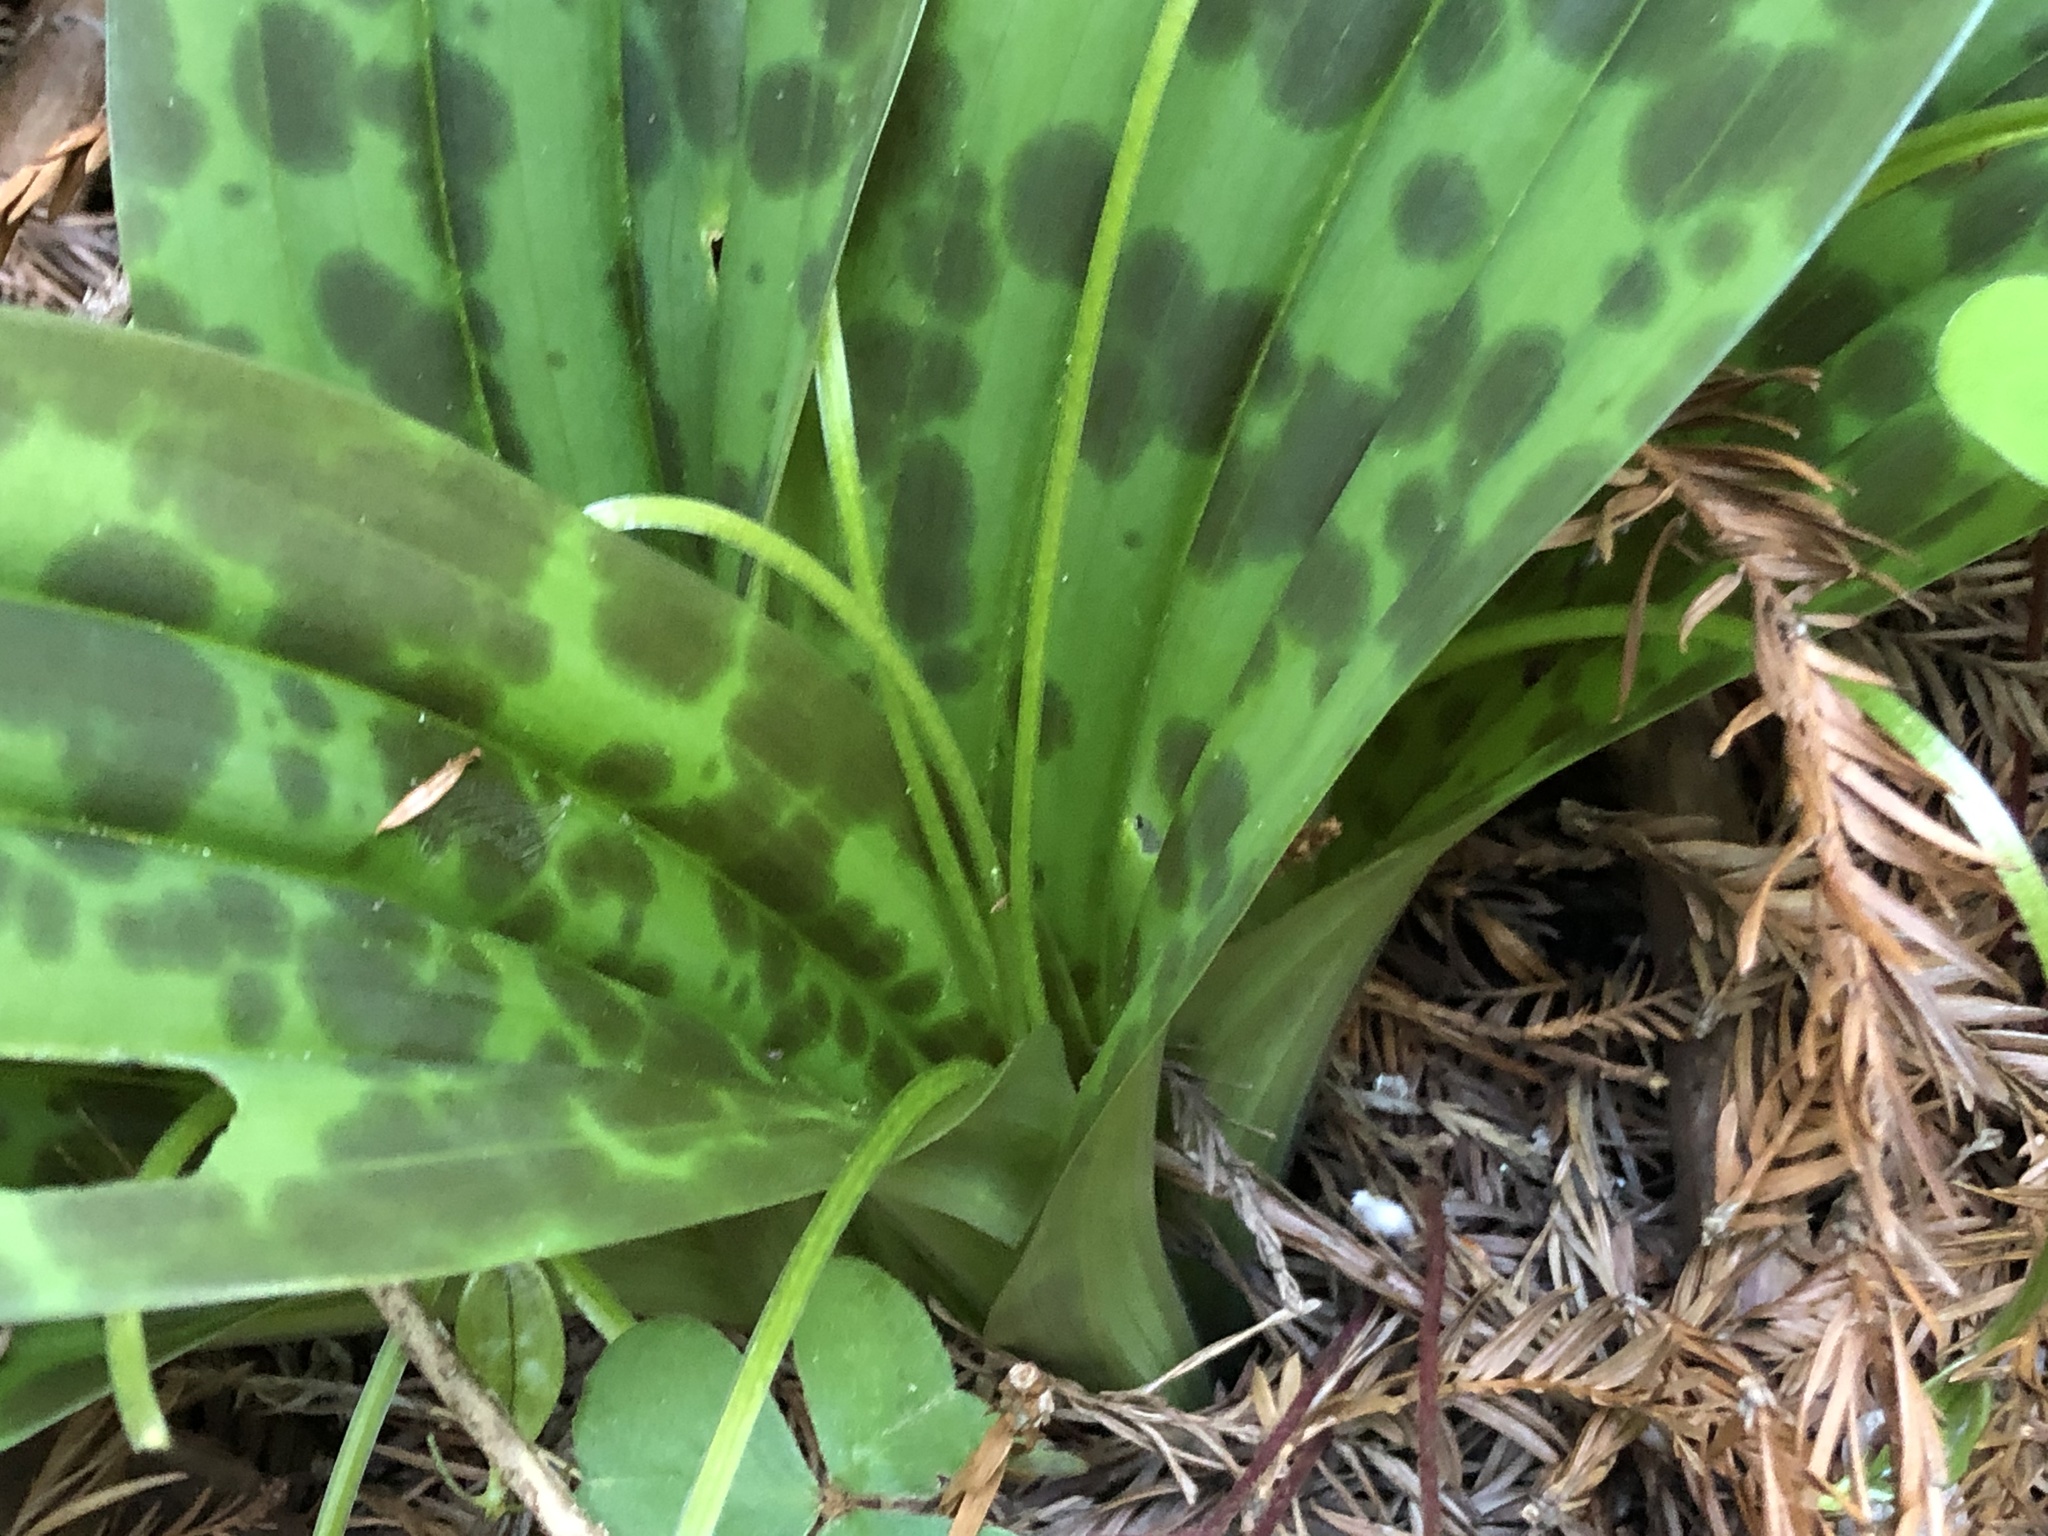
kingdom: Plantae
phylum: Tracheophyta
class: Liliopsida
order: Liliales
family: Liliaceae
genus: Scoliopus
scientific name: Scoliopus bigelovii
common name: Foetid adder's-tongue
